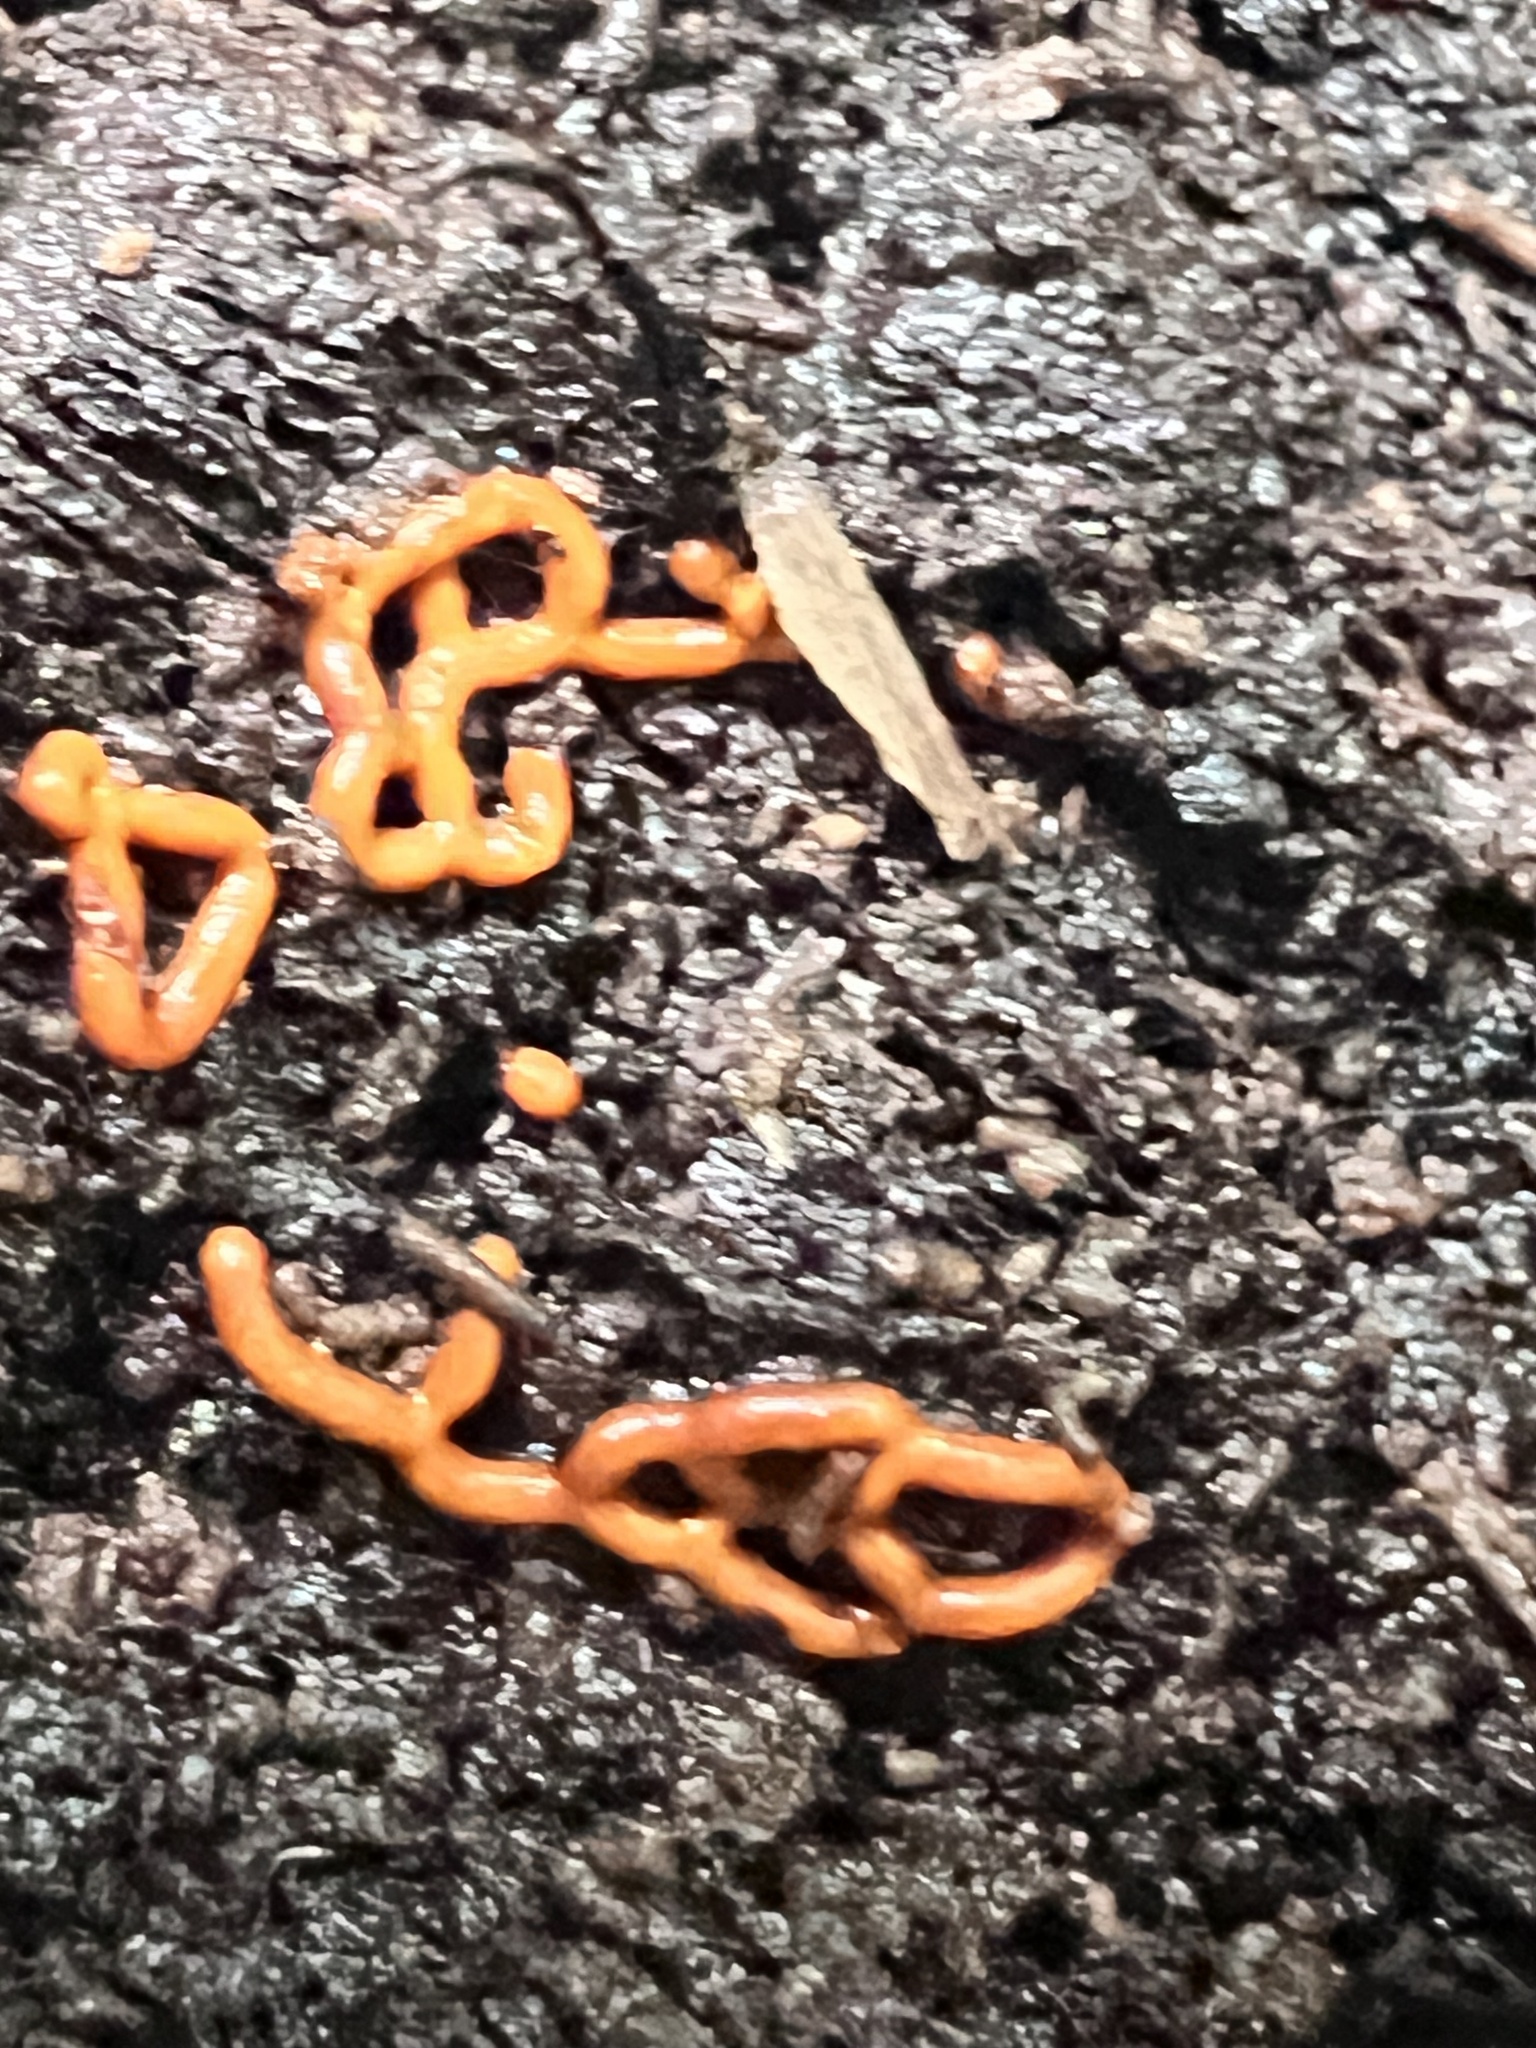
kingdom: Protozoa
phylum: Mycetozoa
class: Myxomycetes
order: Trichiales
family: Arcyriaceae
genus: Hemitrichia
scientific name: Hemitrichia serpula
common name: Pretzel slime mold
